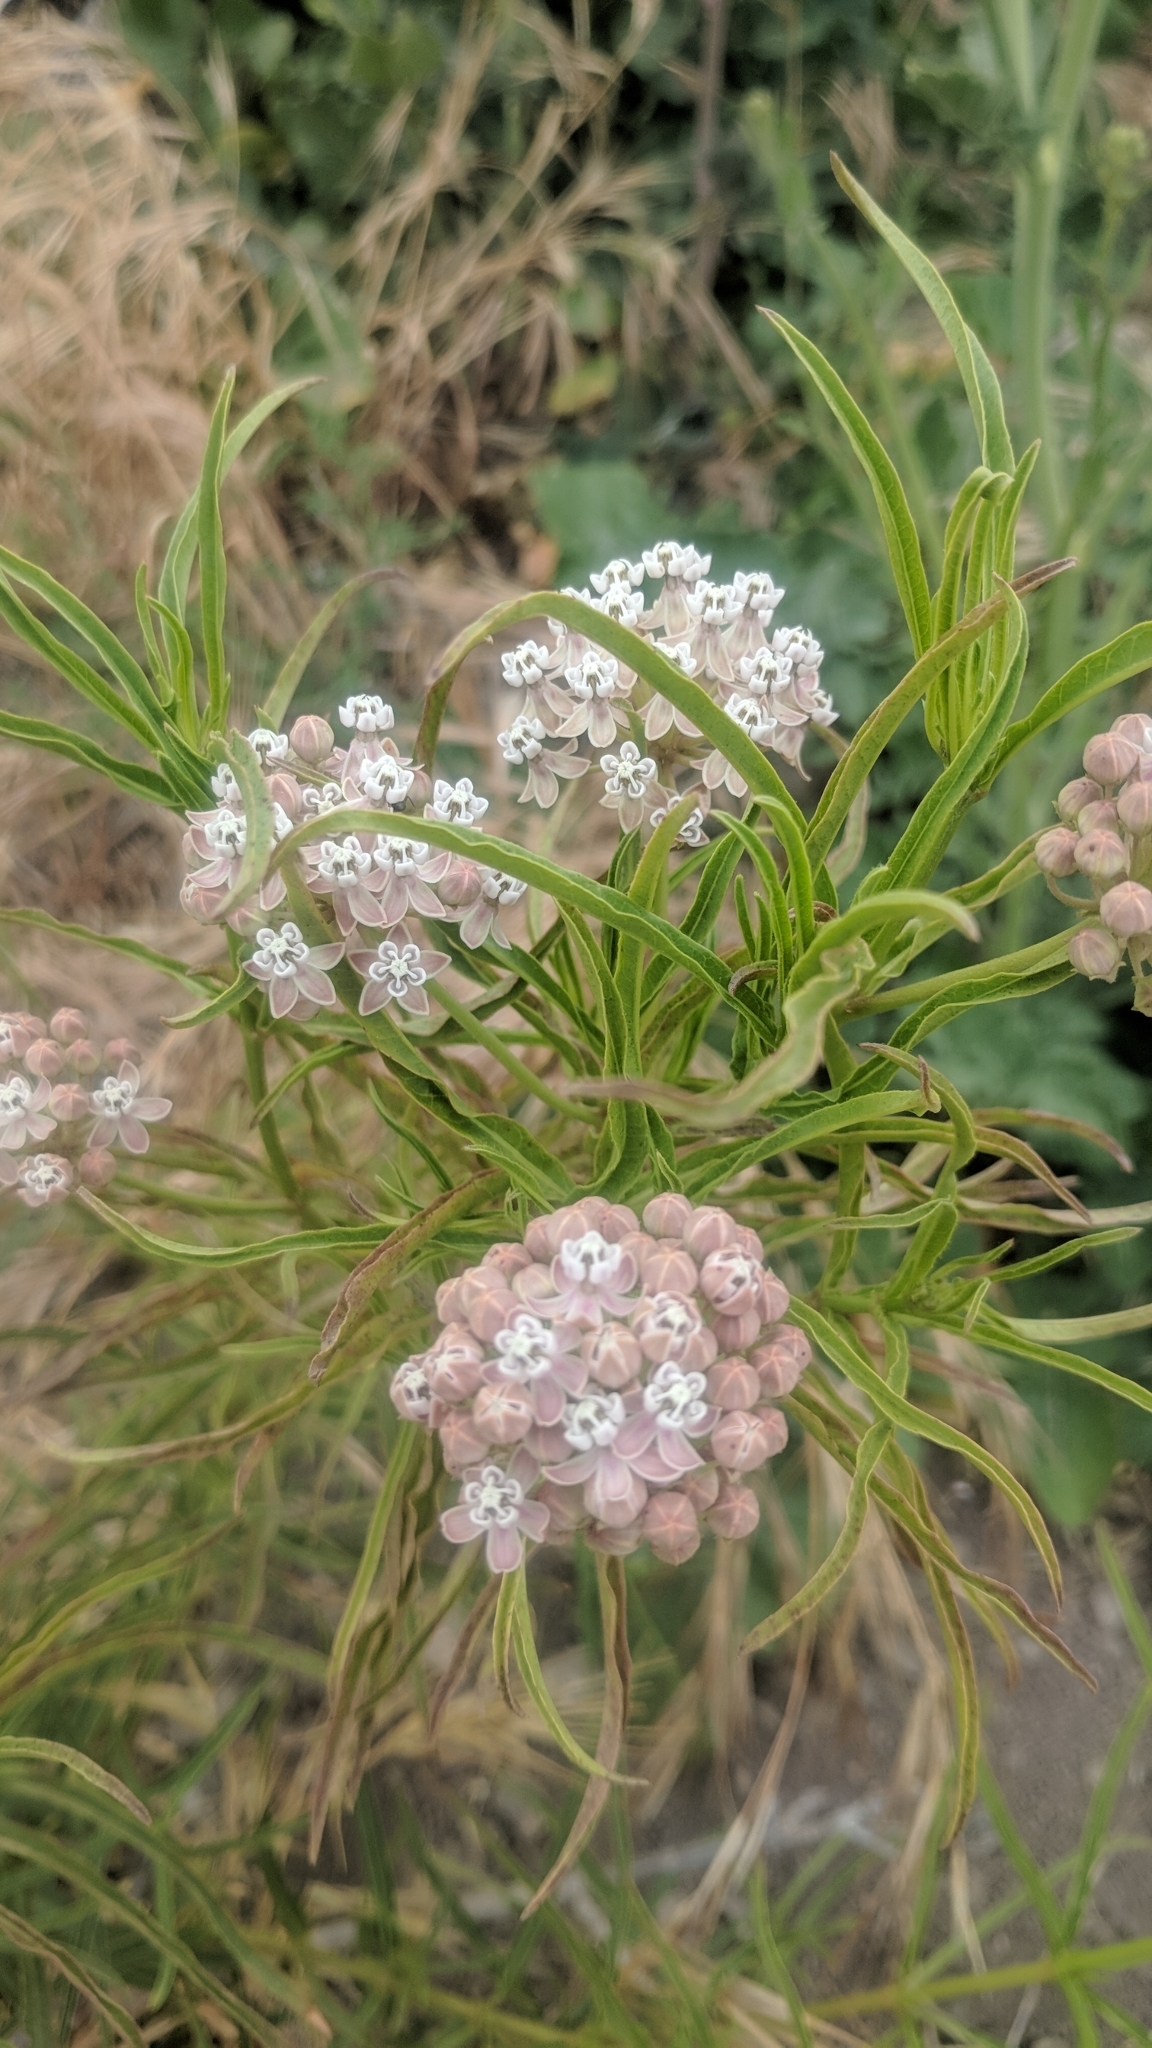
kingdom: Plantae
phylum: Tracheophyta
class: Magnoliopsida
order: Gentianales
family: Apocynaceae
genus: Asclepias
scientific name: Asclepias fascicularis
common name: Mexican milkweed
